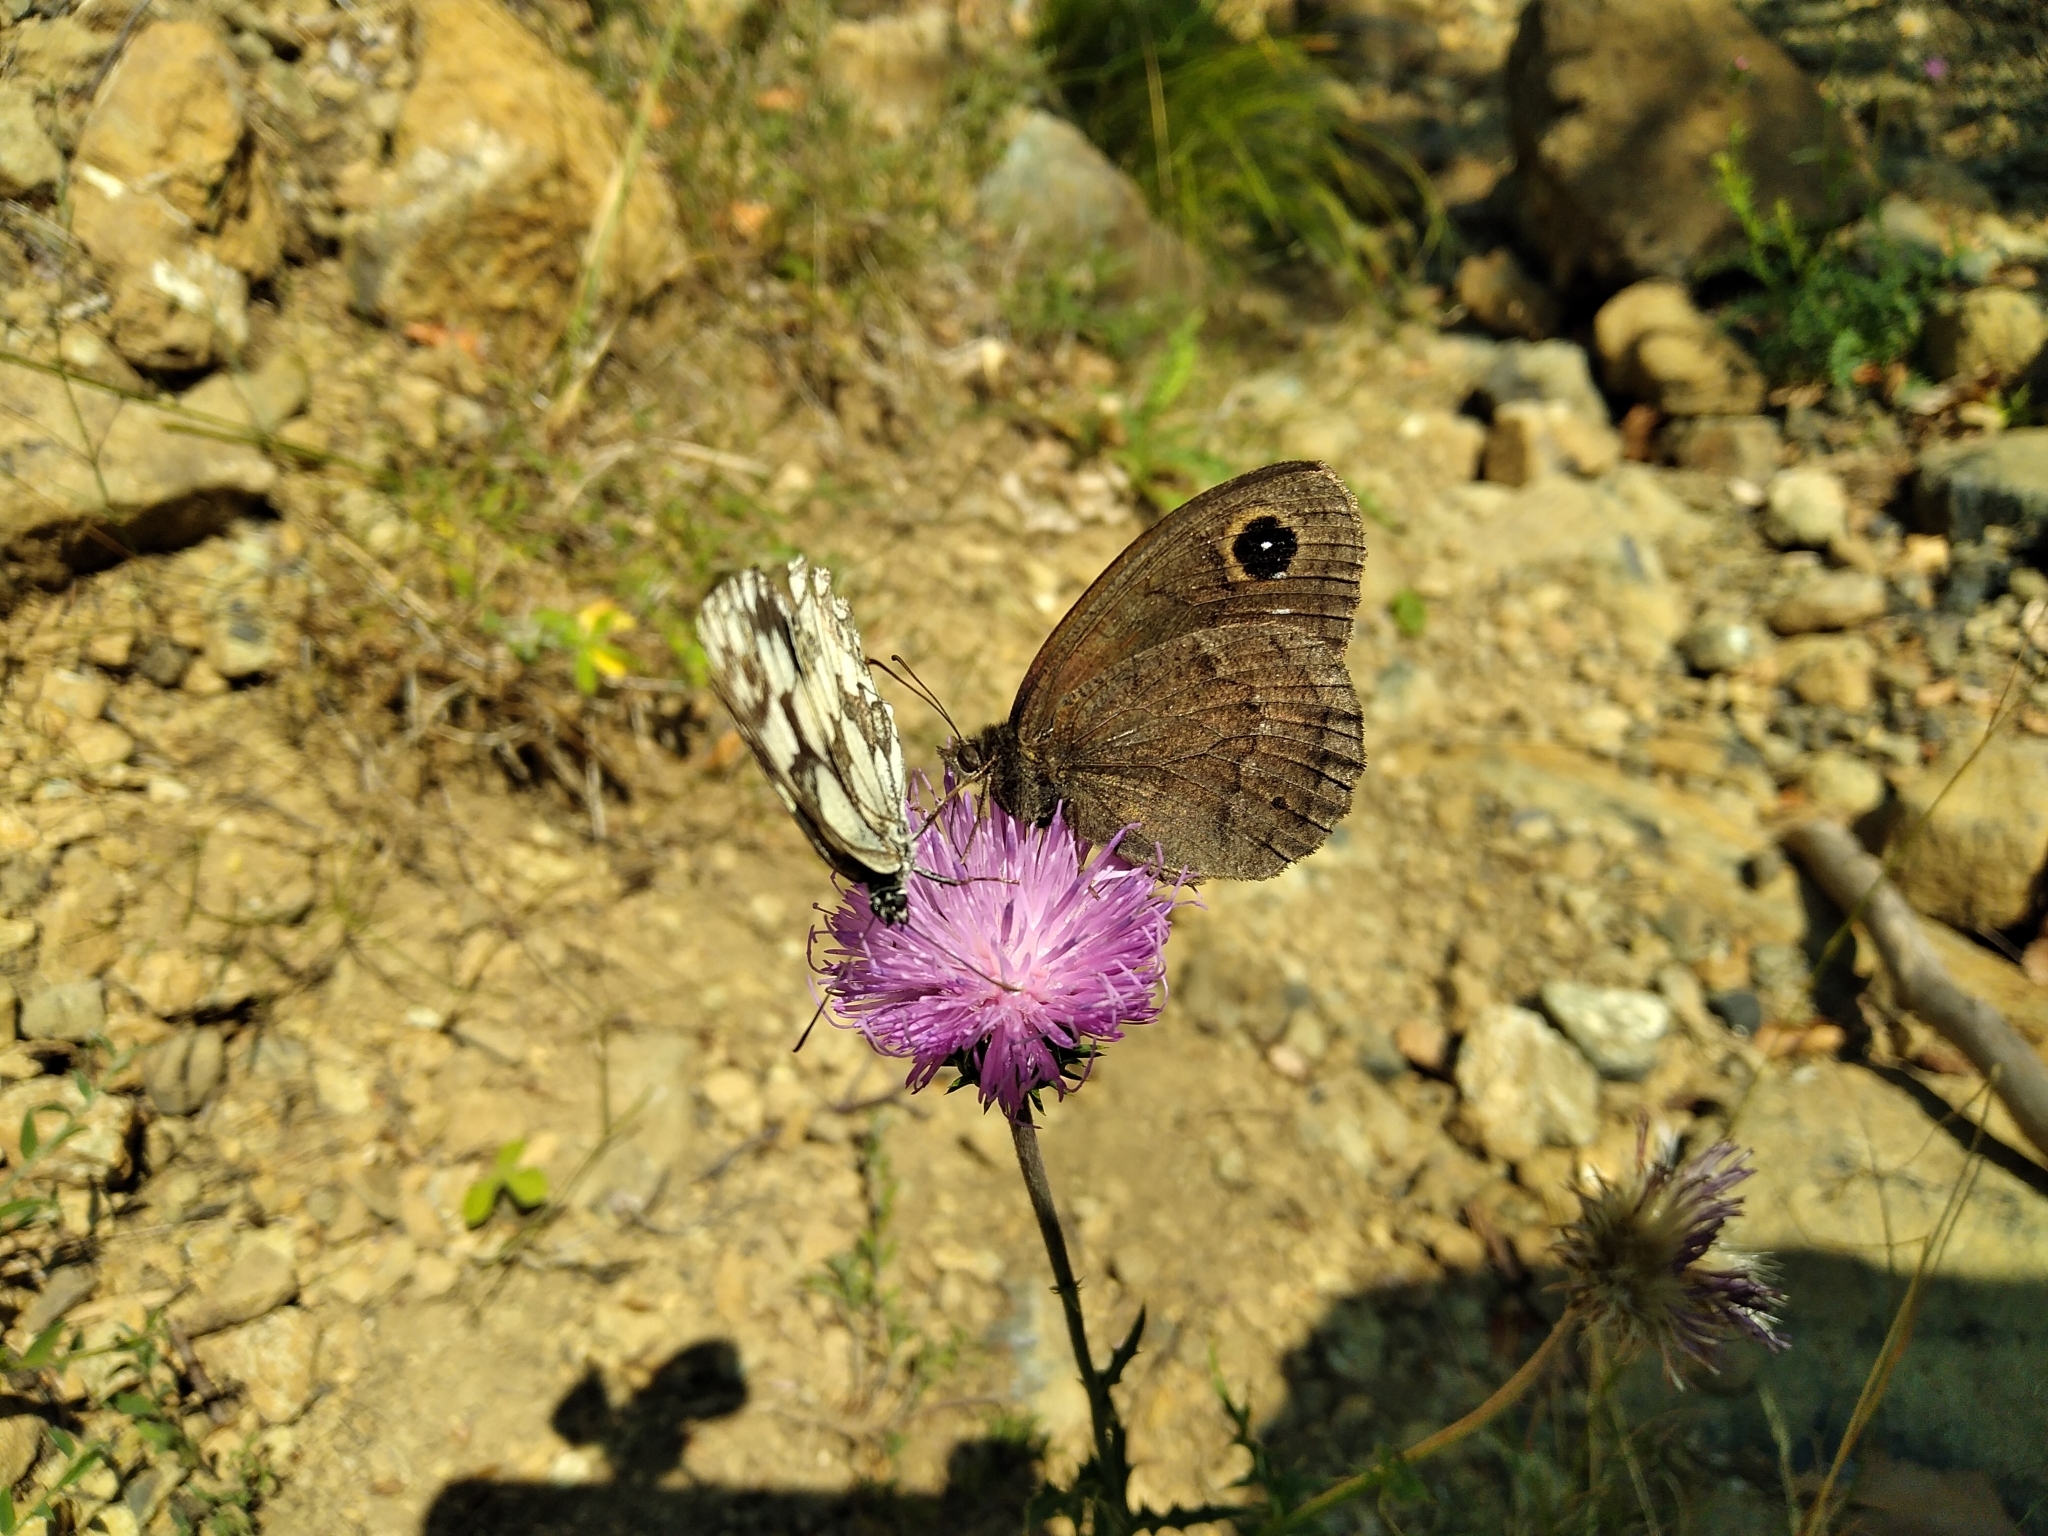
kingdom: Animalia
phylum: Arthropoda
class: Insecta
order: Lepidoptera
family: Nymphalidae
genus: Satyrus
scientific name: Satyrus ferula
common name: Great sooty satyr
